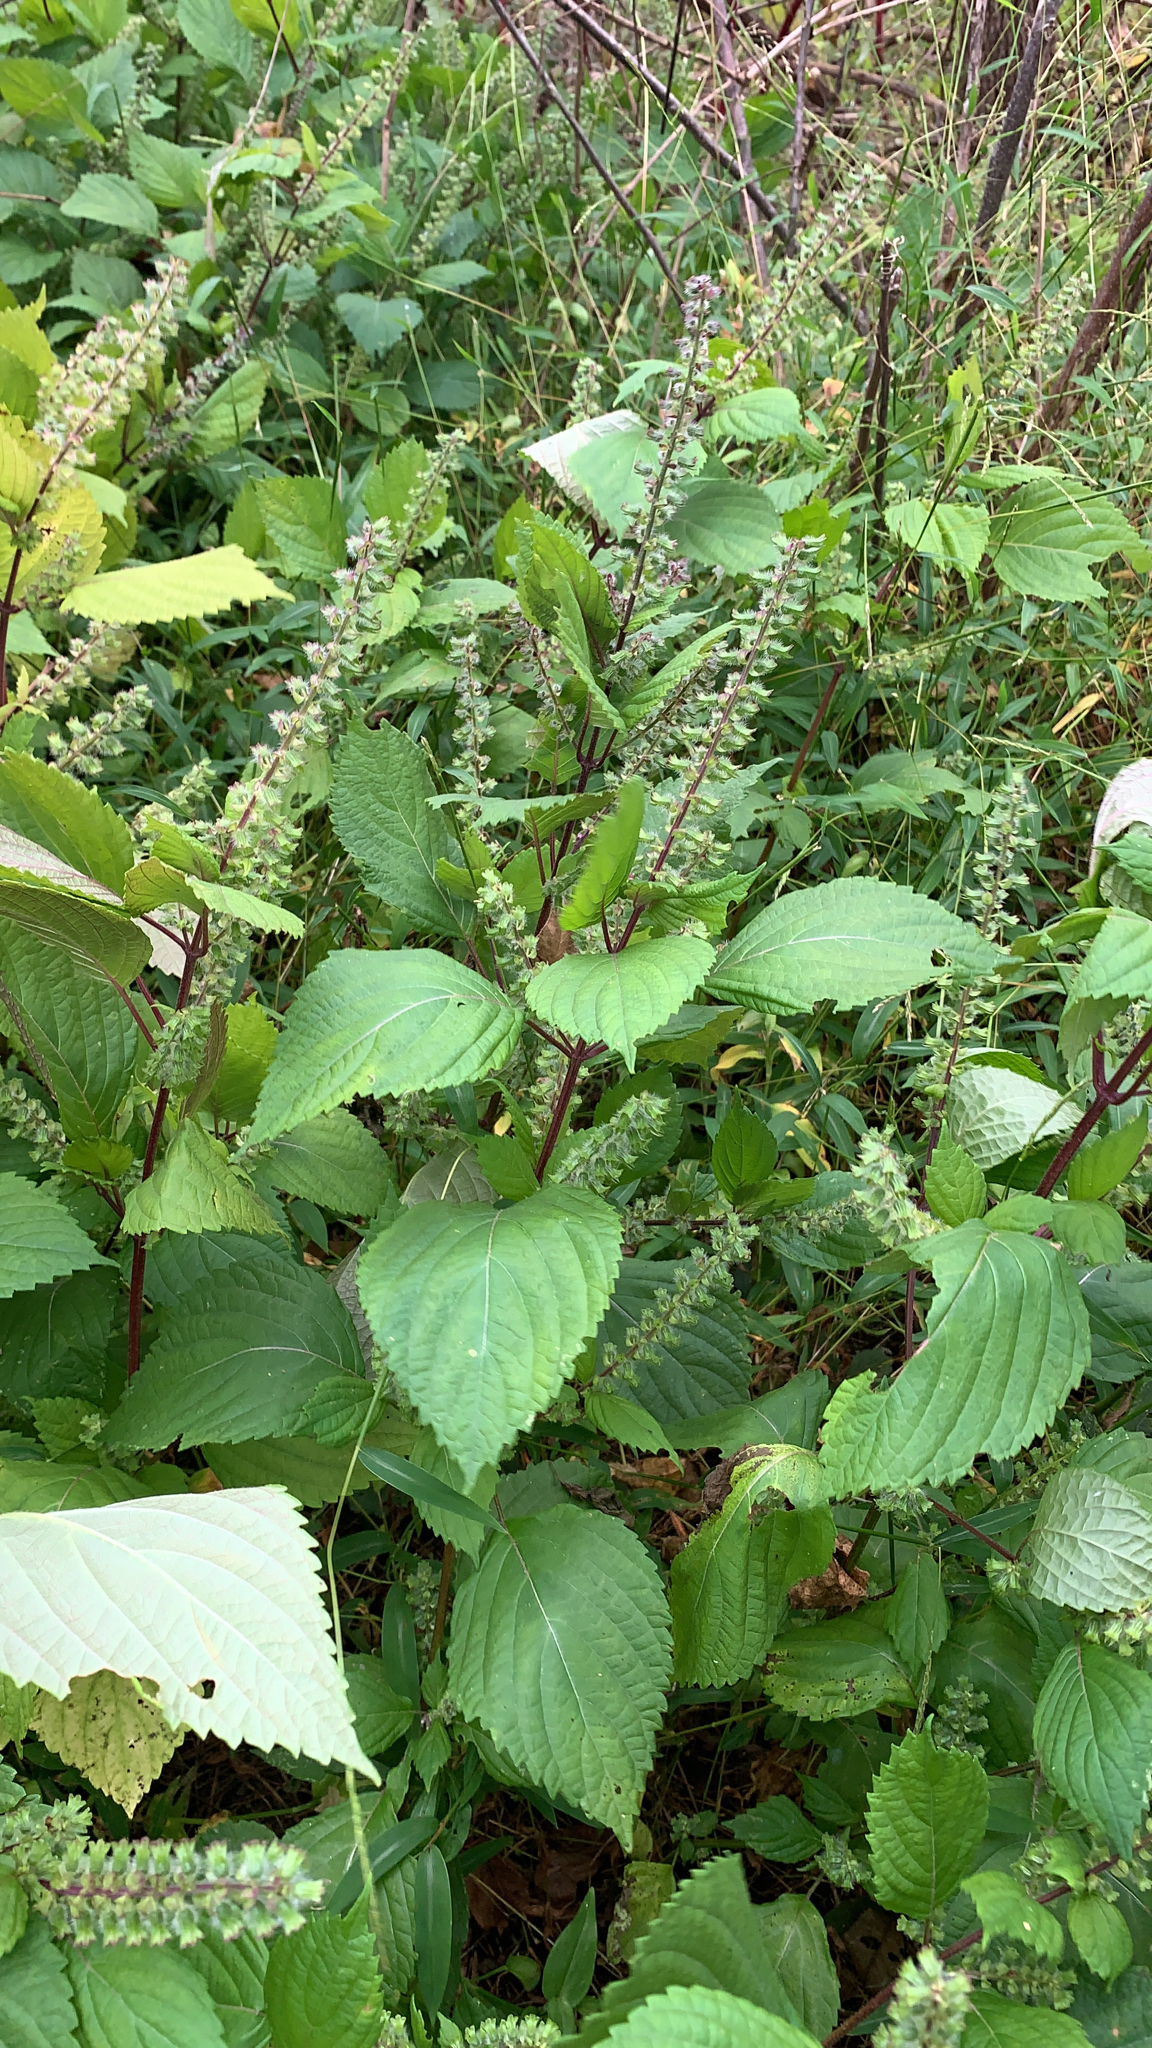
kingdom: Plantae
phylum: Tracheophyta
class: Magnoliopsida
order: Lamiales
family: Lamiaceae
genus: Perilla
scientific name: Perilla frutescens
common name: Perilla
